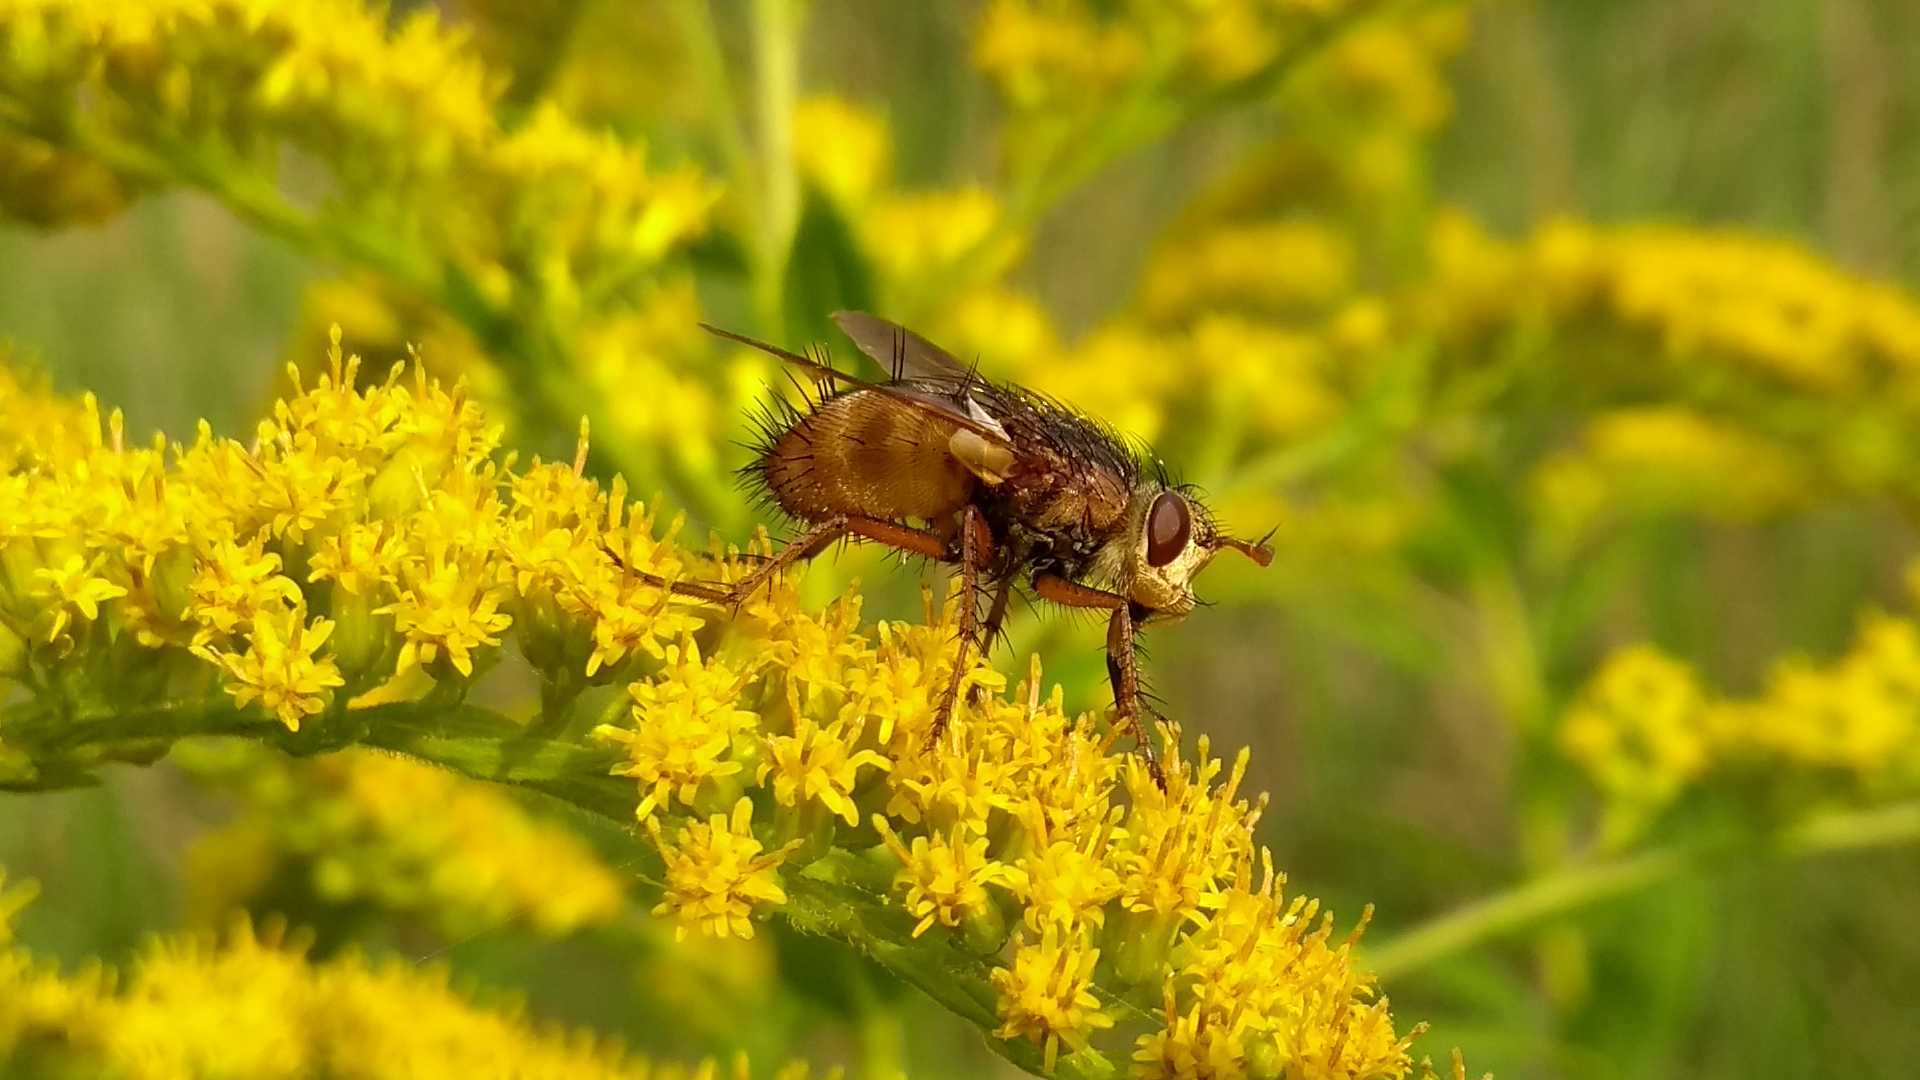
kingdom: Animalia
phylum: Arthropoda
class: Insecta
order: Diptera
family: Tachinidae
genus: Tachina
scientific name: Tachina
